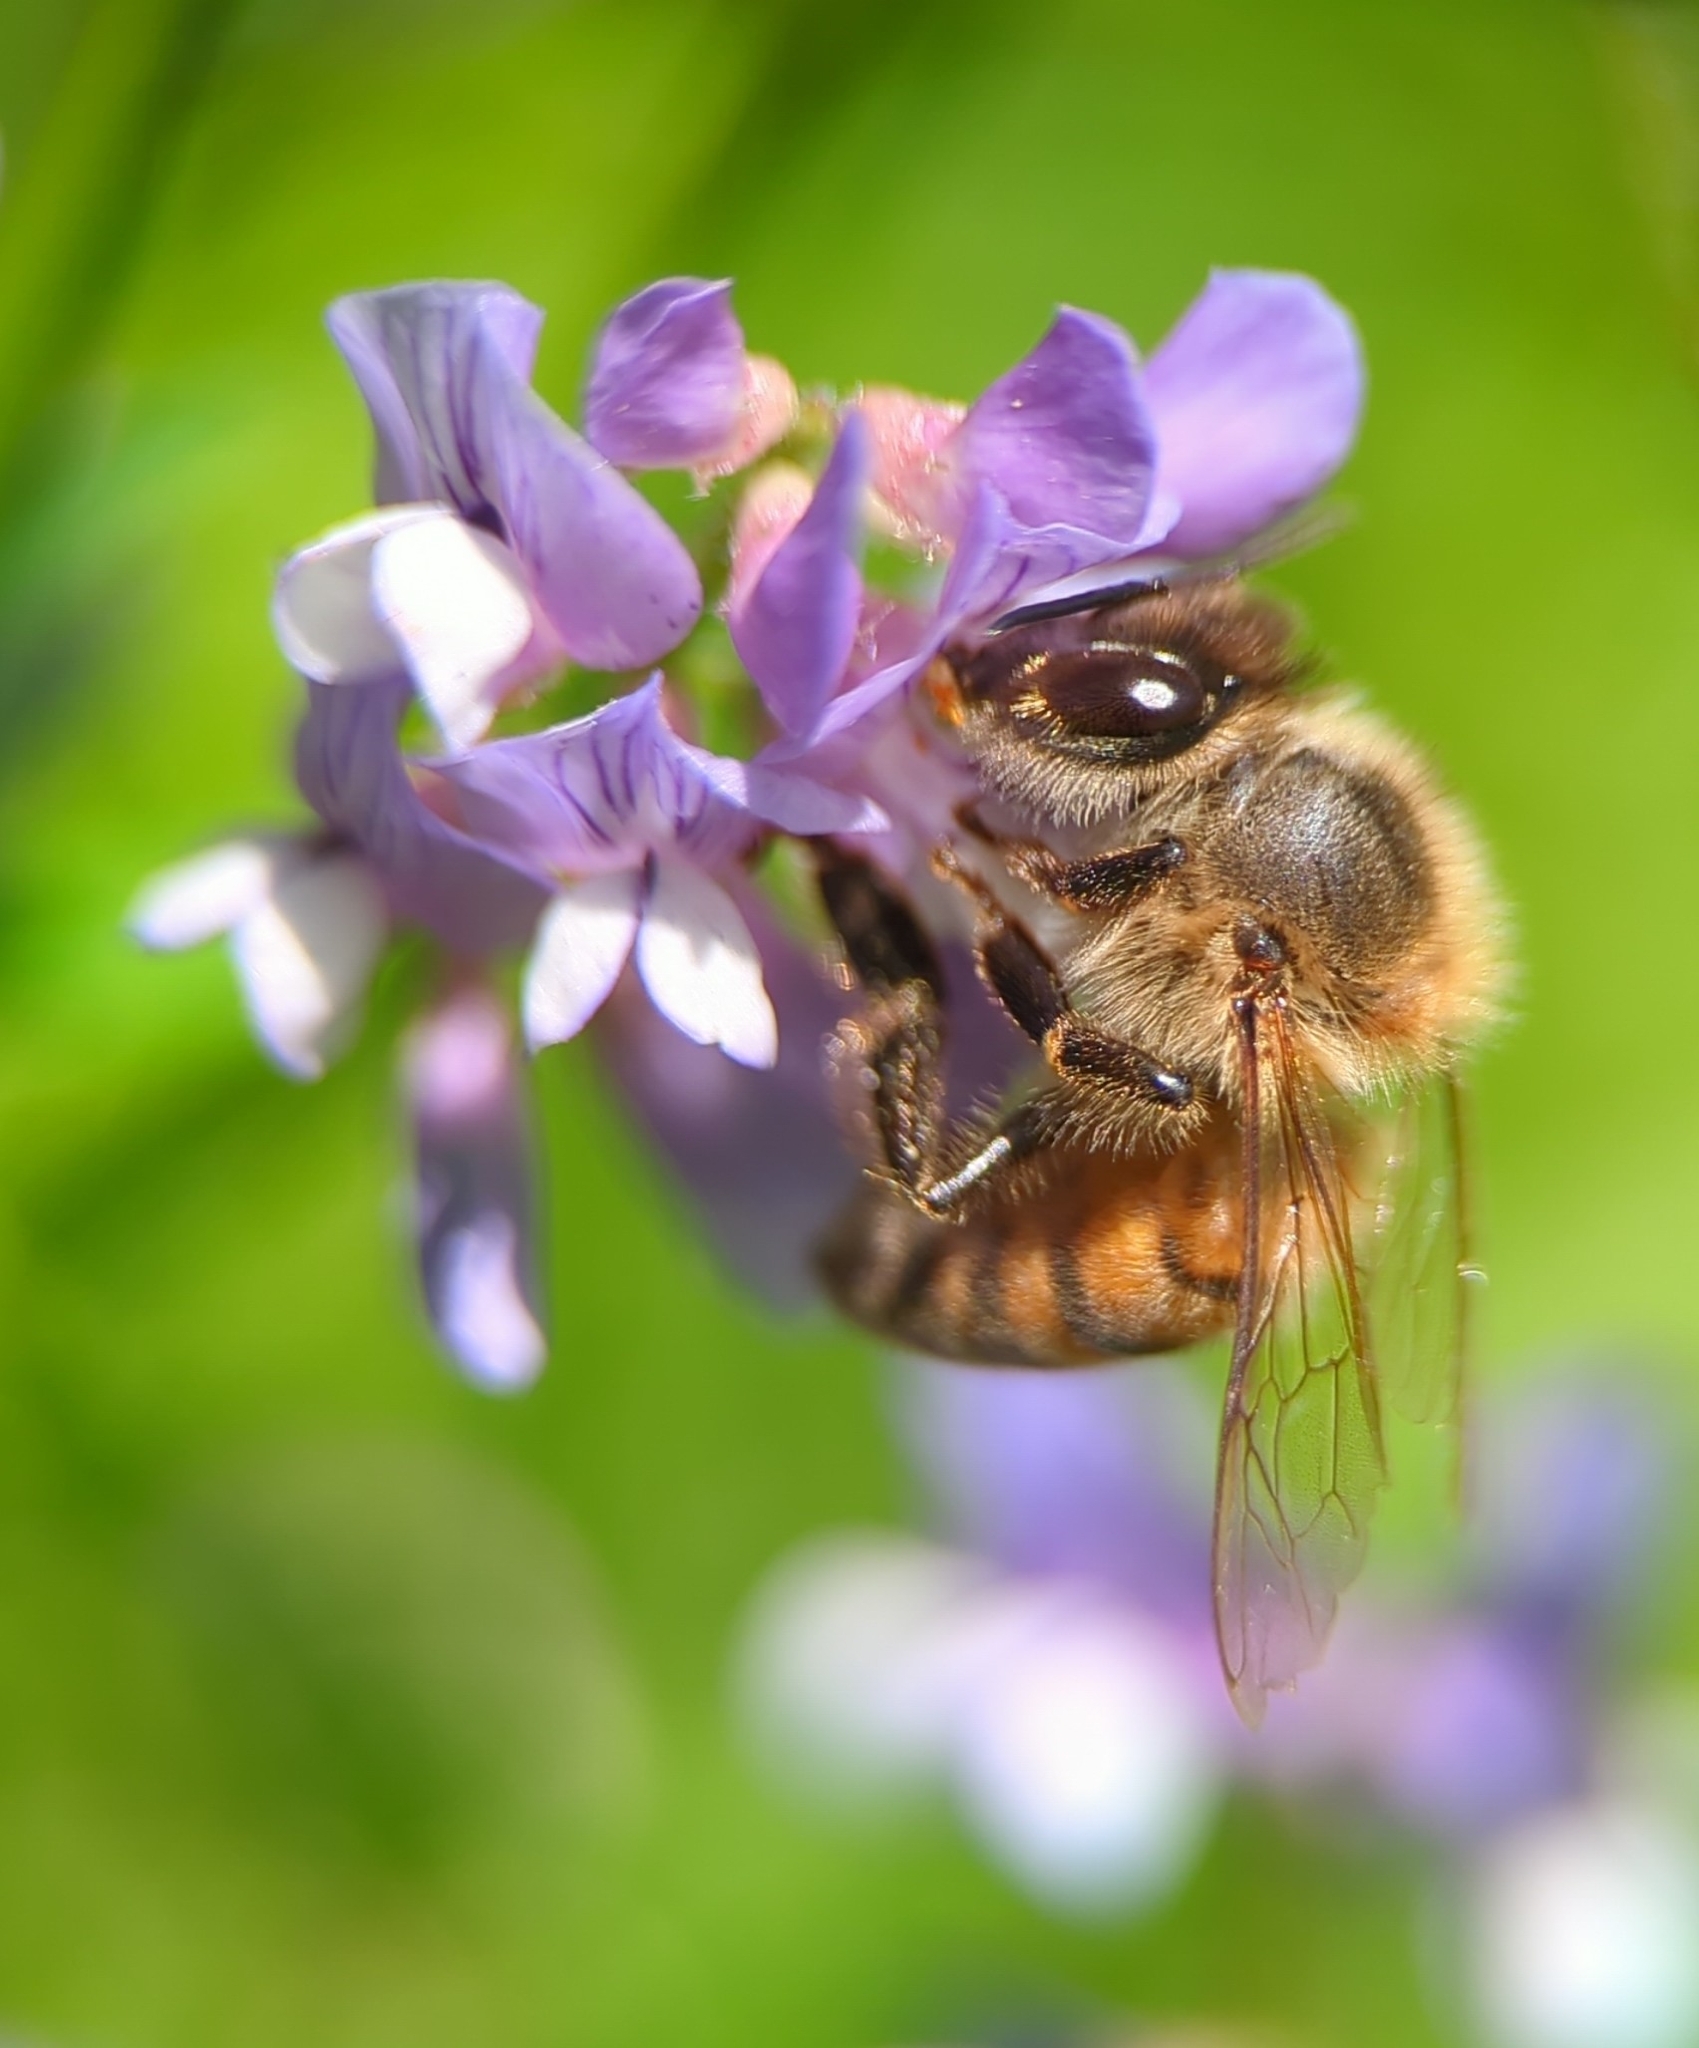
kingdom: Animalia
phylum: Arthropoda
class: Insecta
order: Hymenoptera
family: Apidae
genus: Apis
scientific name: Apis mellifera
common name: Honey bee
